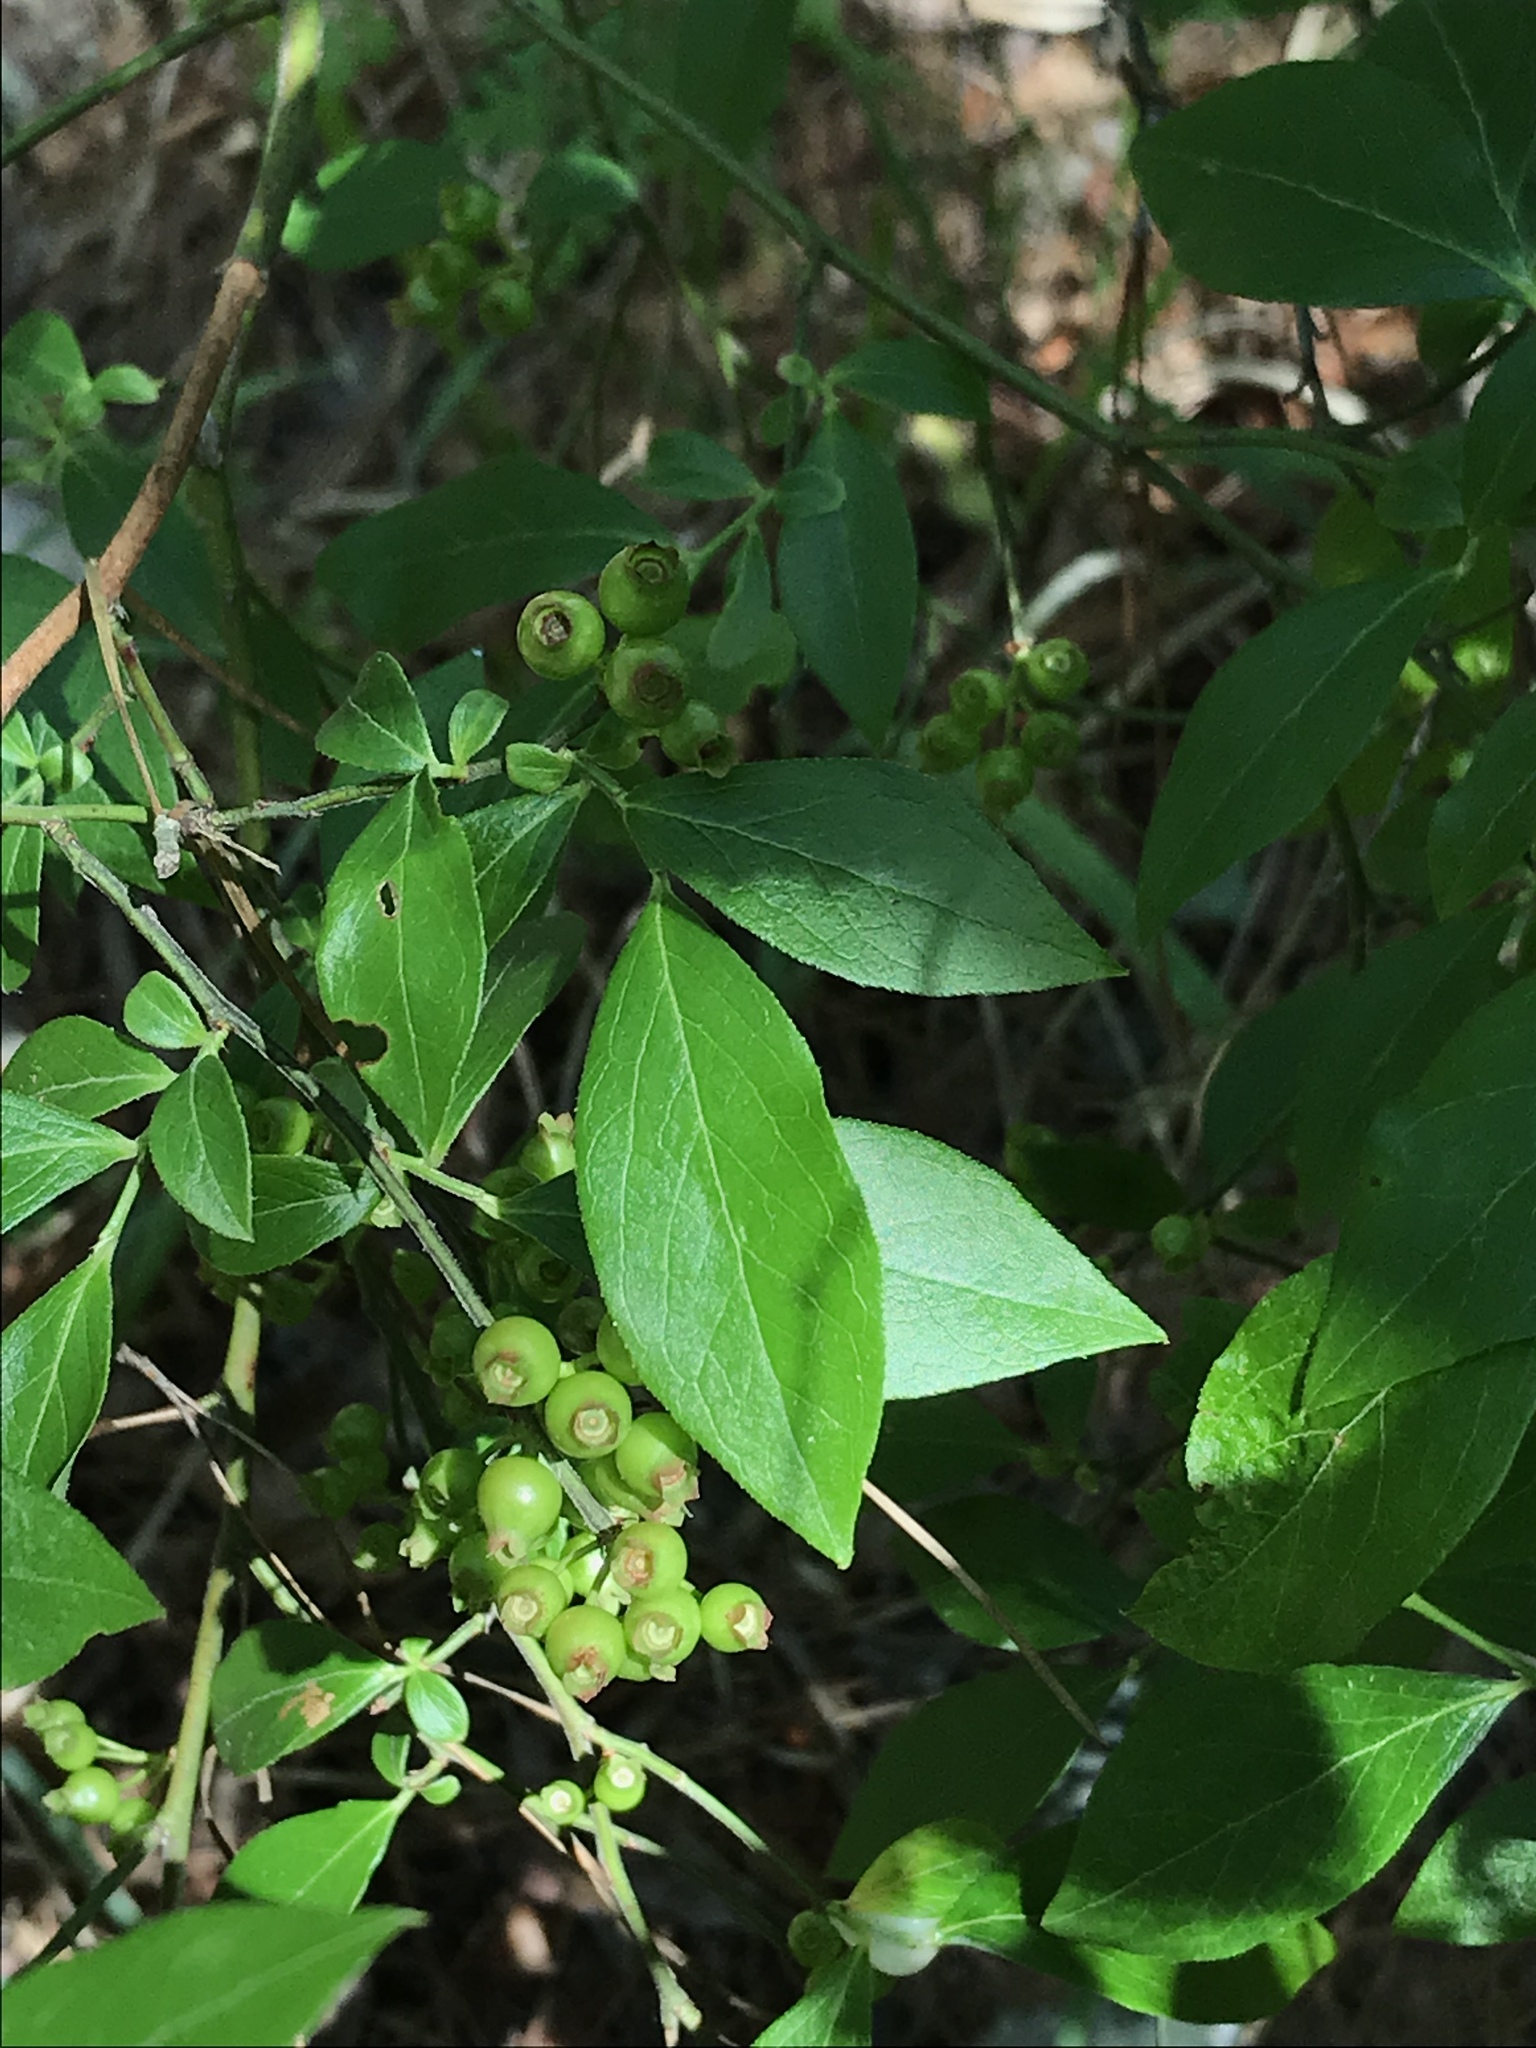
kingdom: Plantae
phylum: Tracheophyta
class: Magnoliopsida
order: Ericales
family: Ericaceae
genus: Vaccinium
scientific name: Vaccinium
